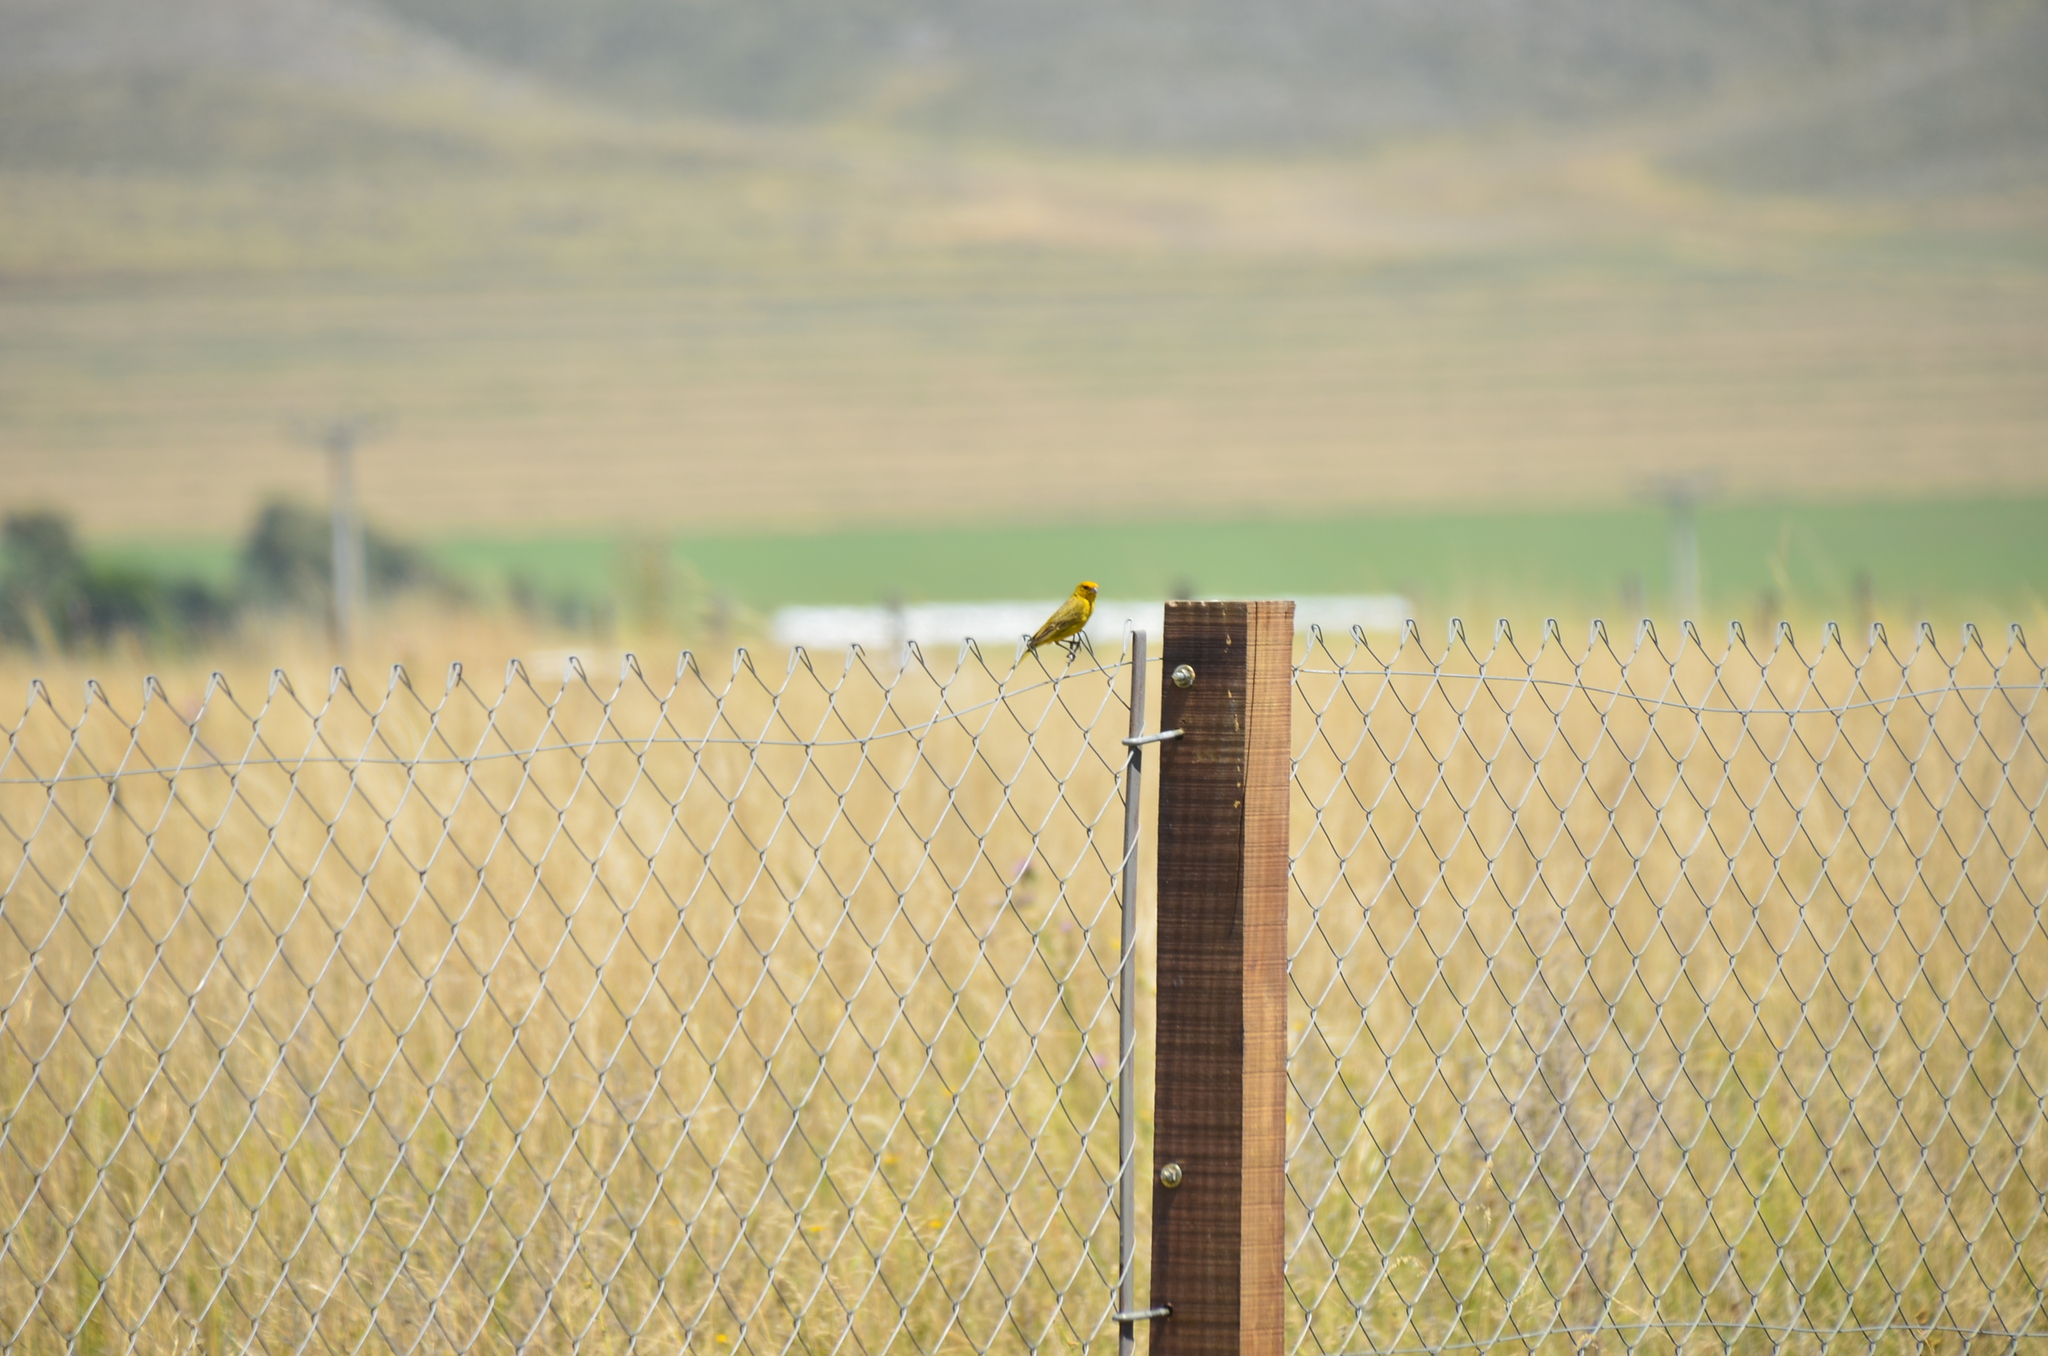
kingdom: Animalia
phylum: Chordata
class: Aves
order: Passeriformes
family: Thraupidae
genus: Sicalis
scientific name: Sicalis flaveola
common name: Saffron finch
